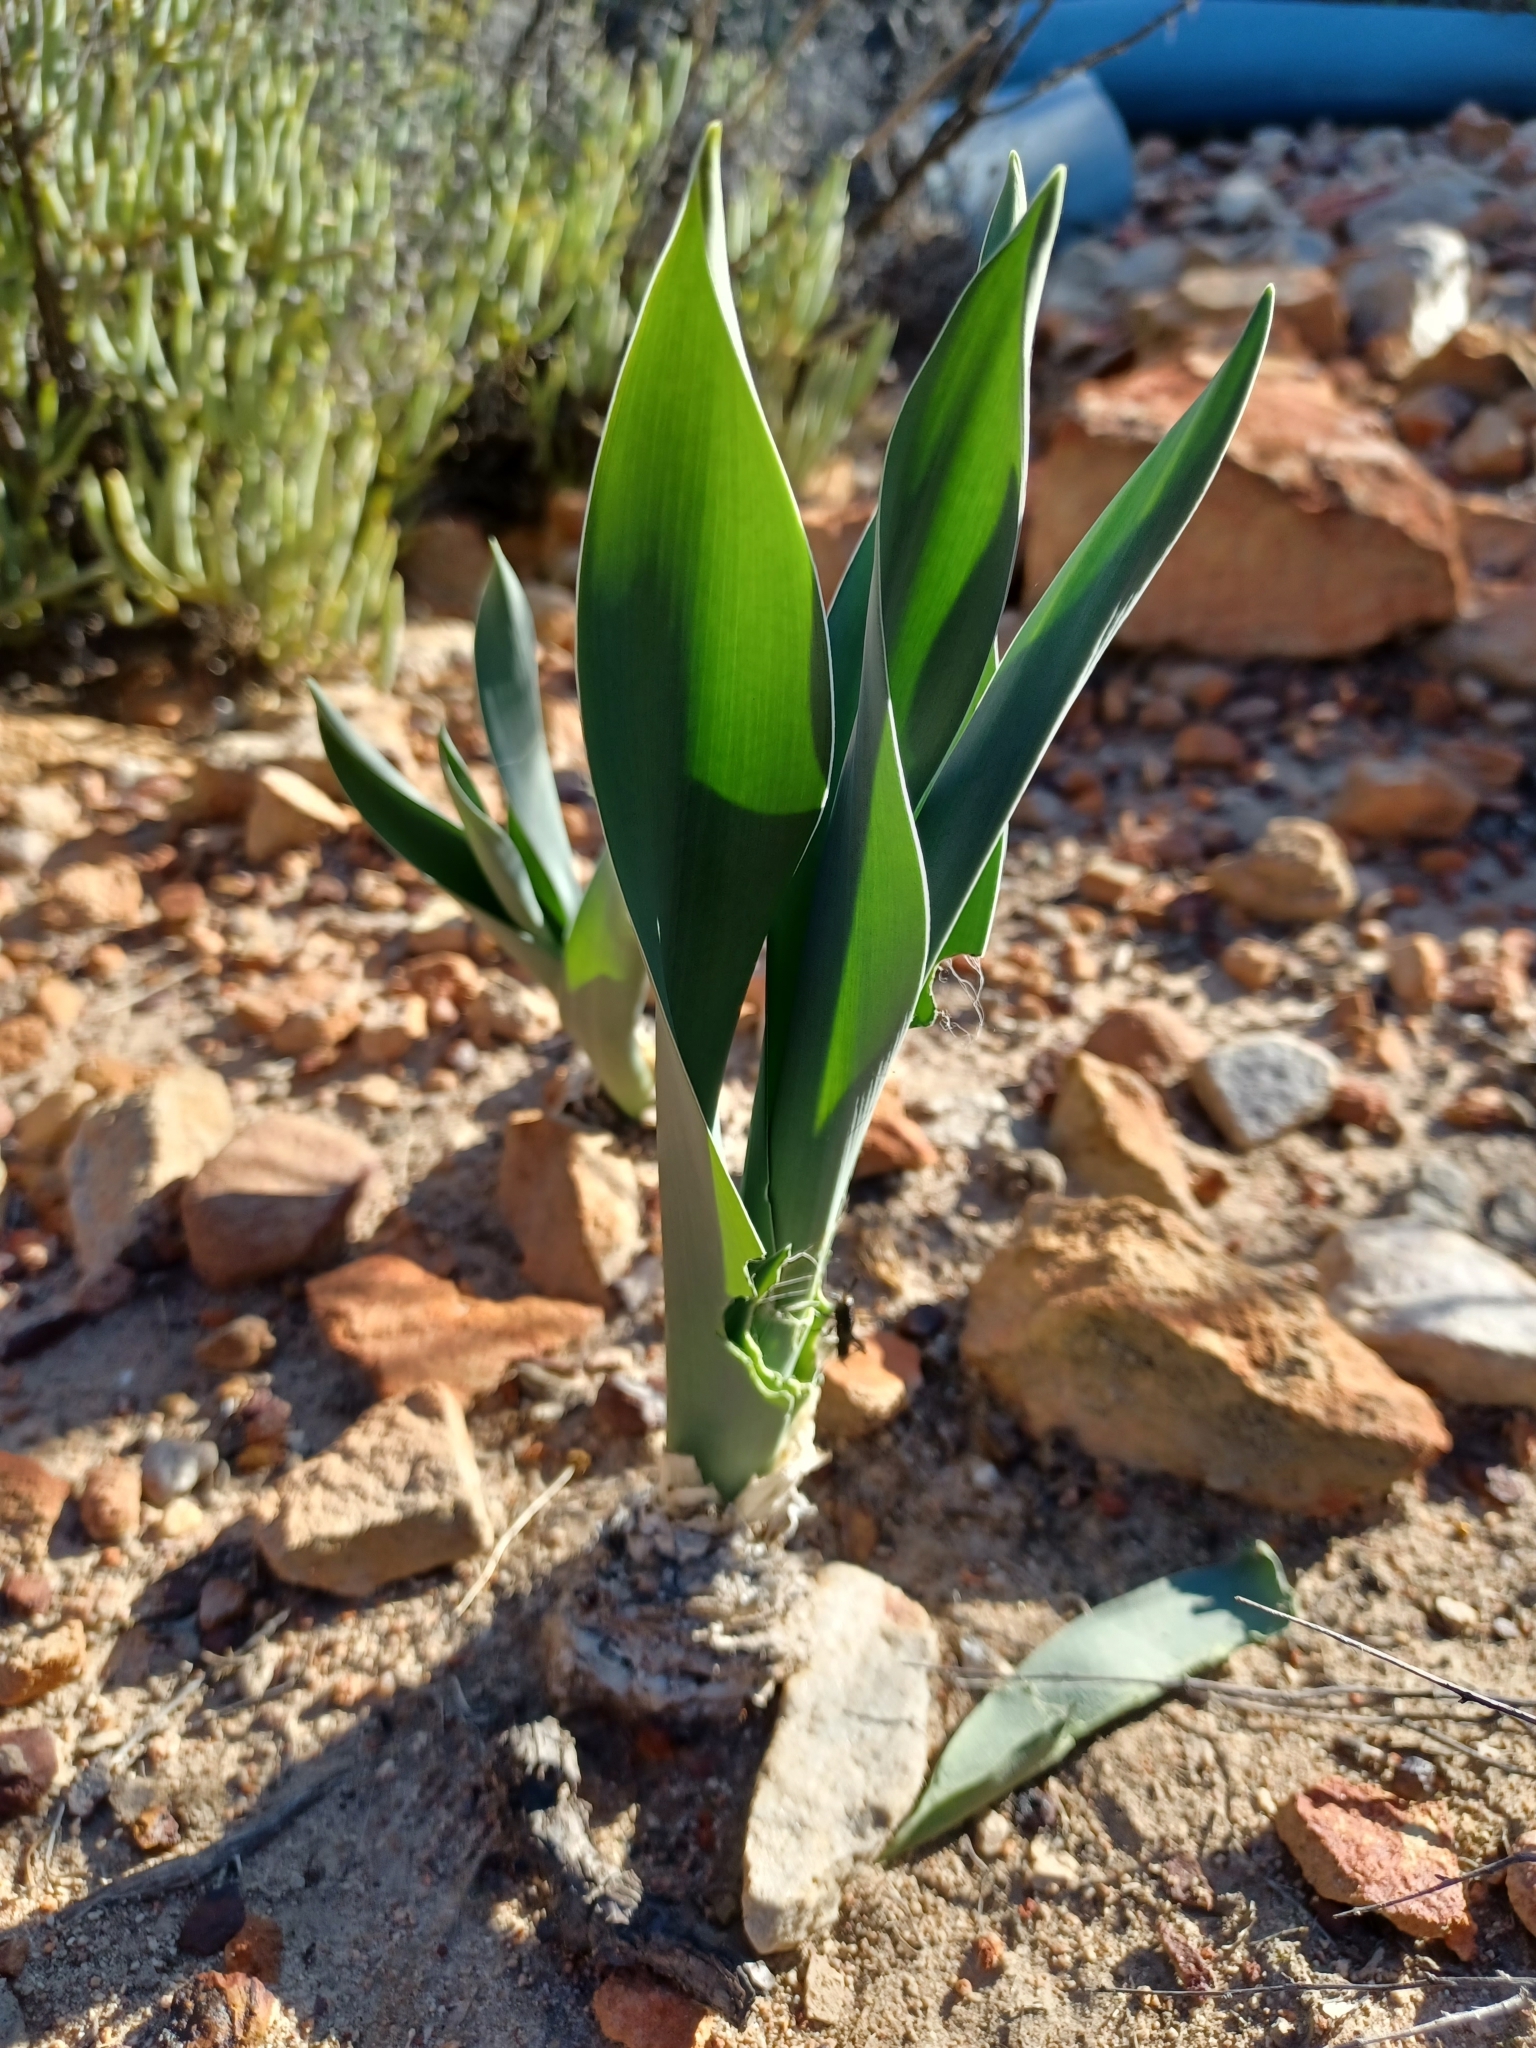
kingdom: Plantae
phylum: Tracheophyta
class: Liliopsida
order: Asparagales
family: Asparagaceae
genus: Drimia
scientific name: Drimia capensis
